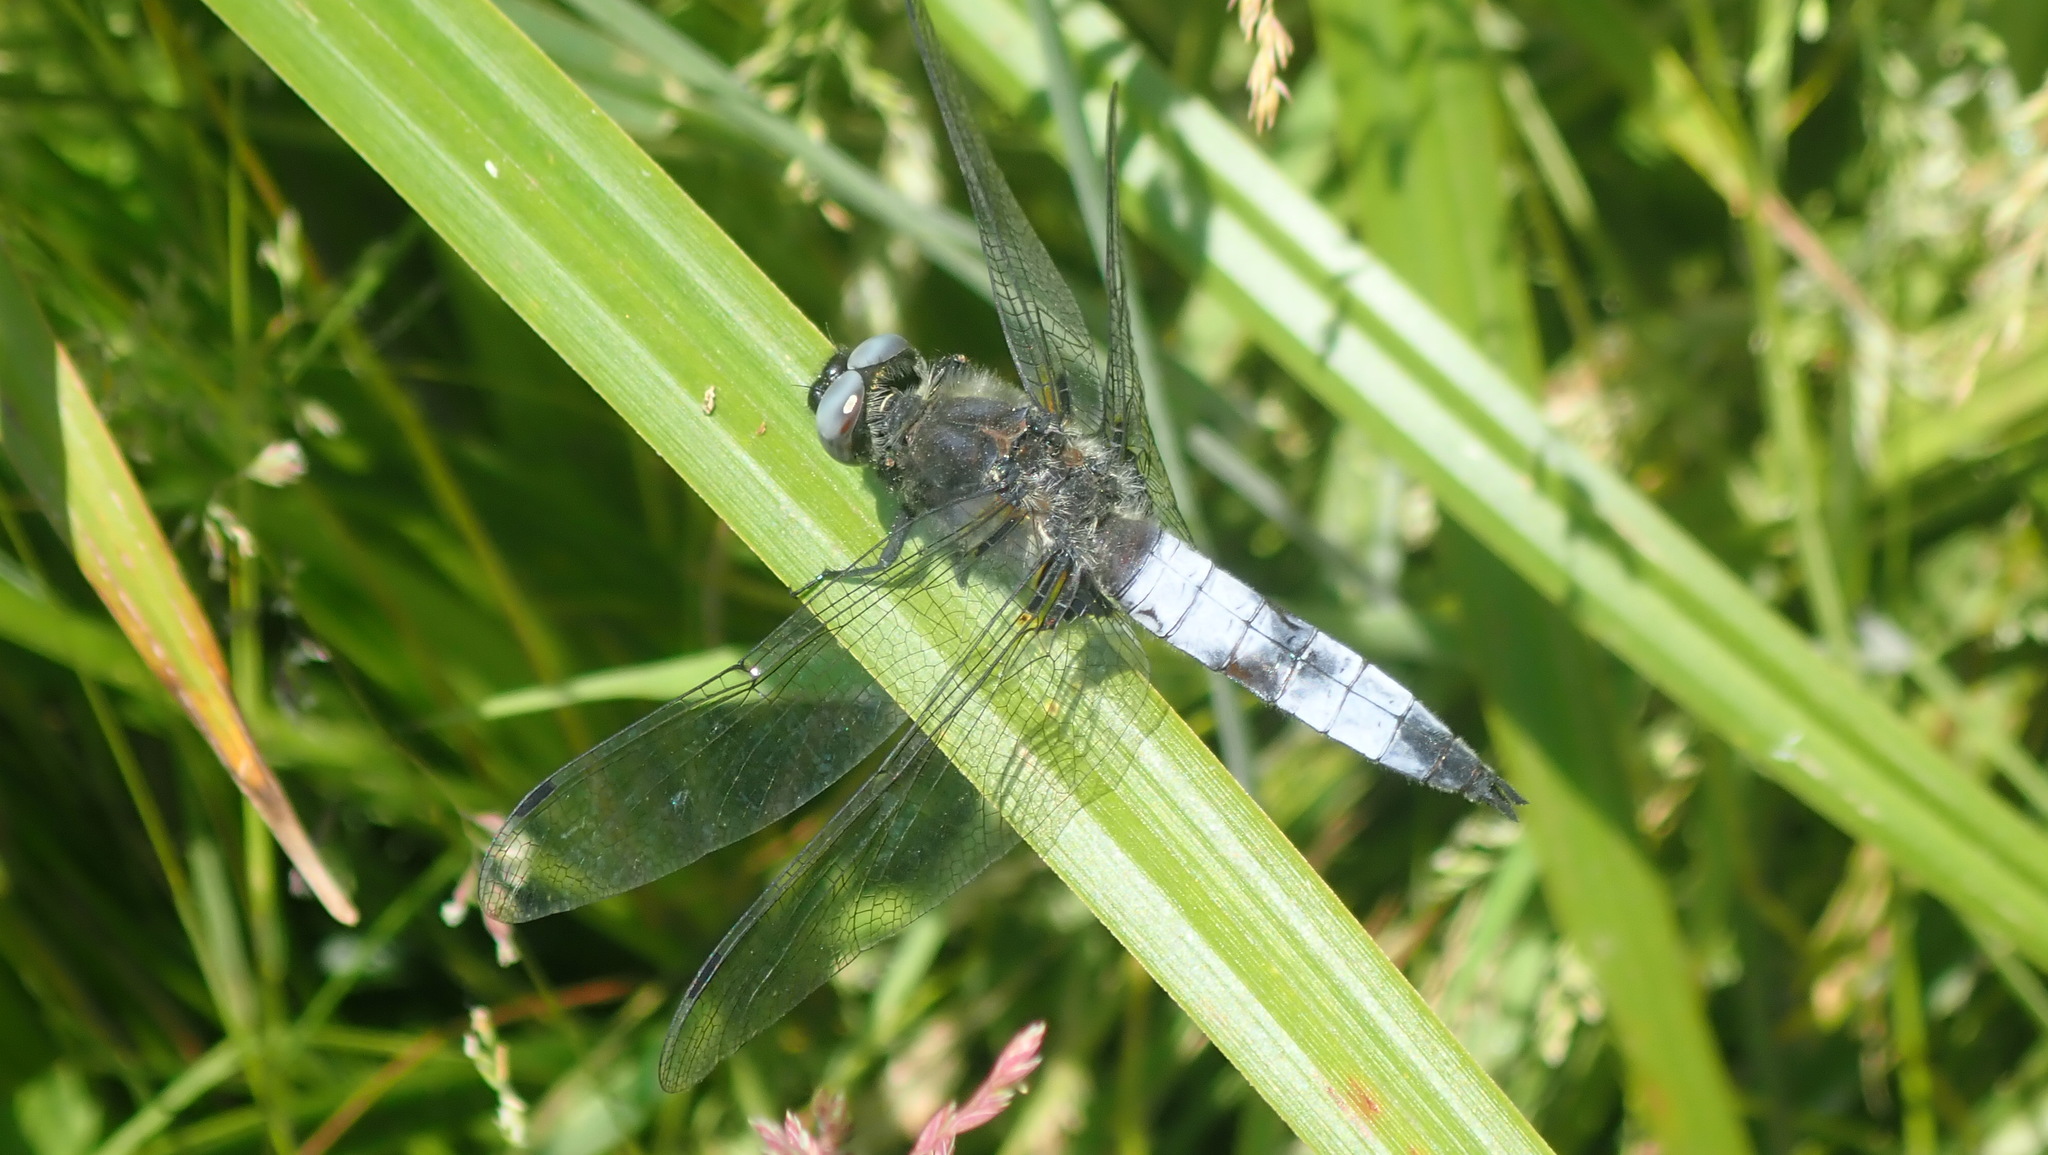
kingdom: Animalia
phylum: Arthropoda
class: Insecta
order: Odonata
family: Libellulidae
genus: Libellula
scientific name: Libellula fulva
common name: Blue chaser
